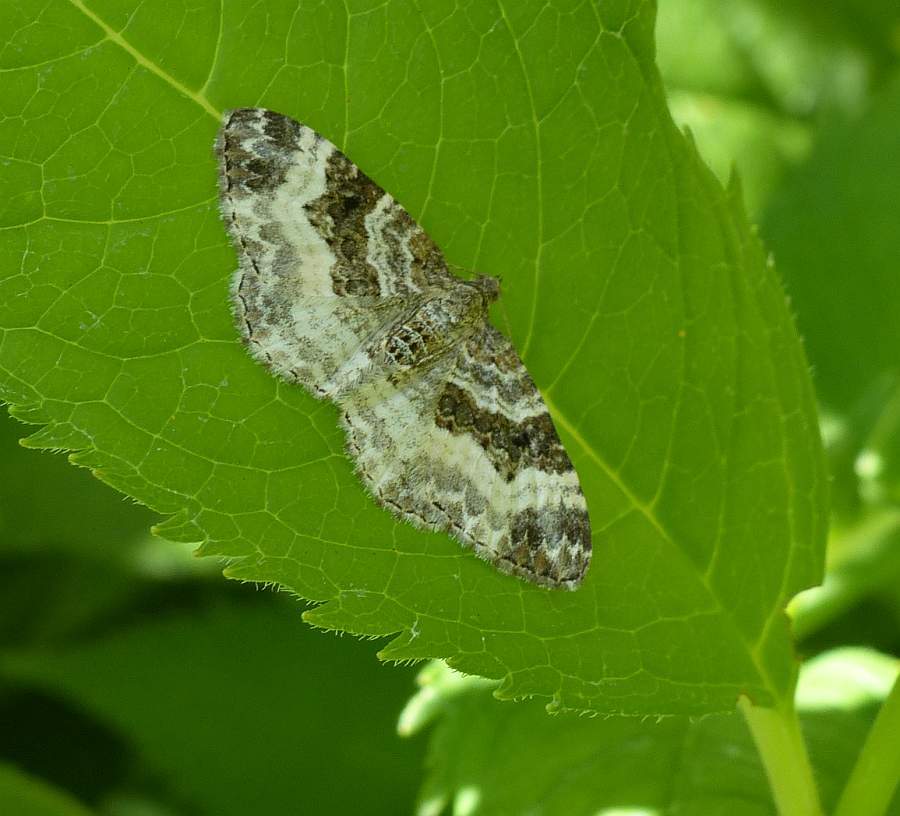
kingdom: Animalia
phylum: Arthropoda
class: Insecta
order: Lepidoptera
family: Geometridae
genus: Epirrhoe
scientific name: Epirrhoe alternata
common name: Common carpet
